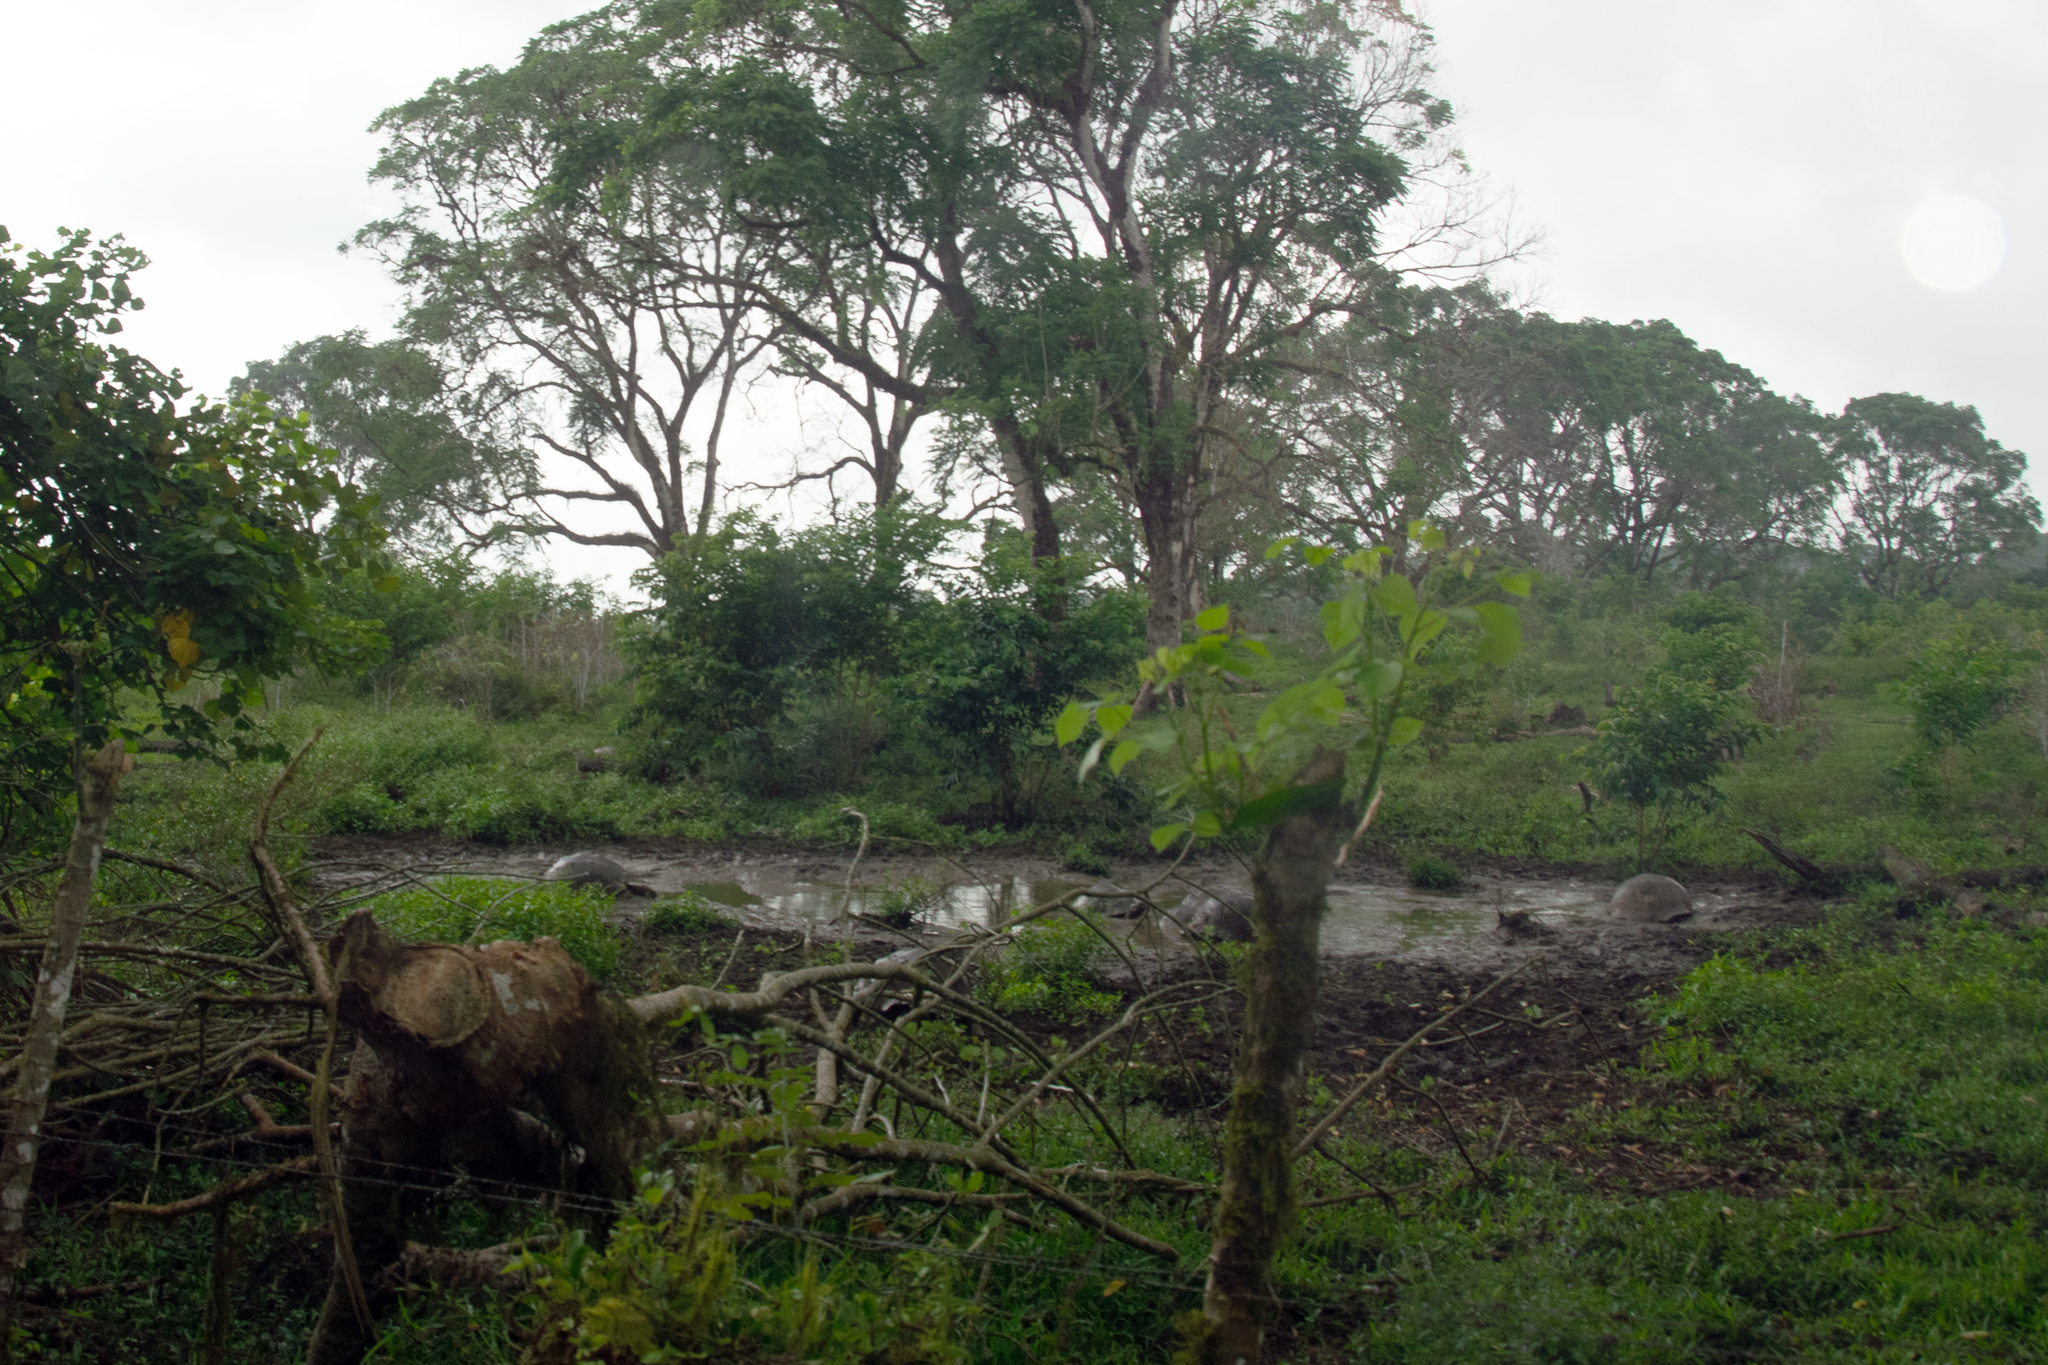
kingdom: Animalia
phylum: Chordata
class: Testudines
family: Testudinidae
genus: Chelonoidis
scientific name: Chelonoidis porteri
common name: Indefatigable island giant tortoise
